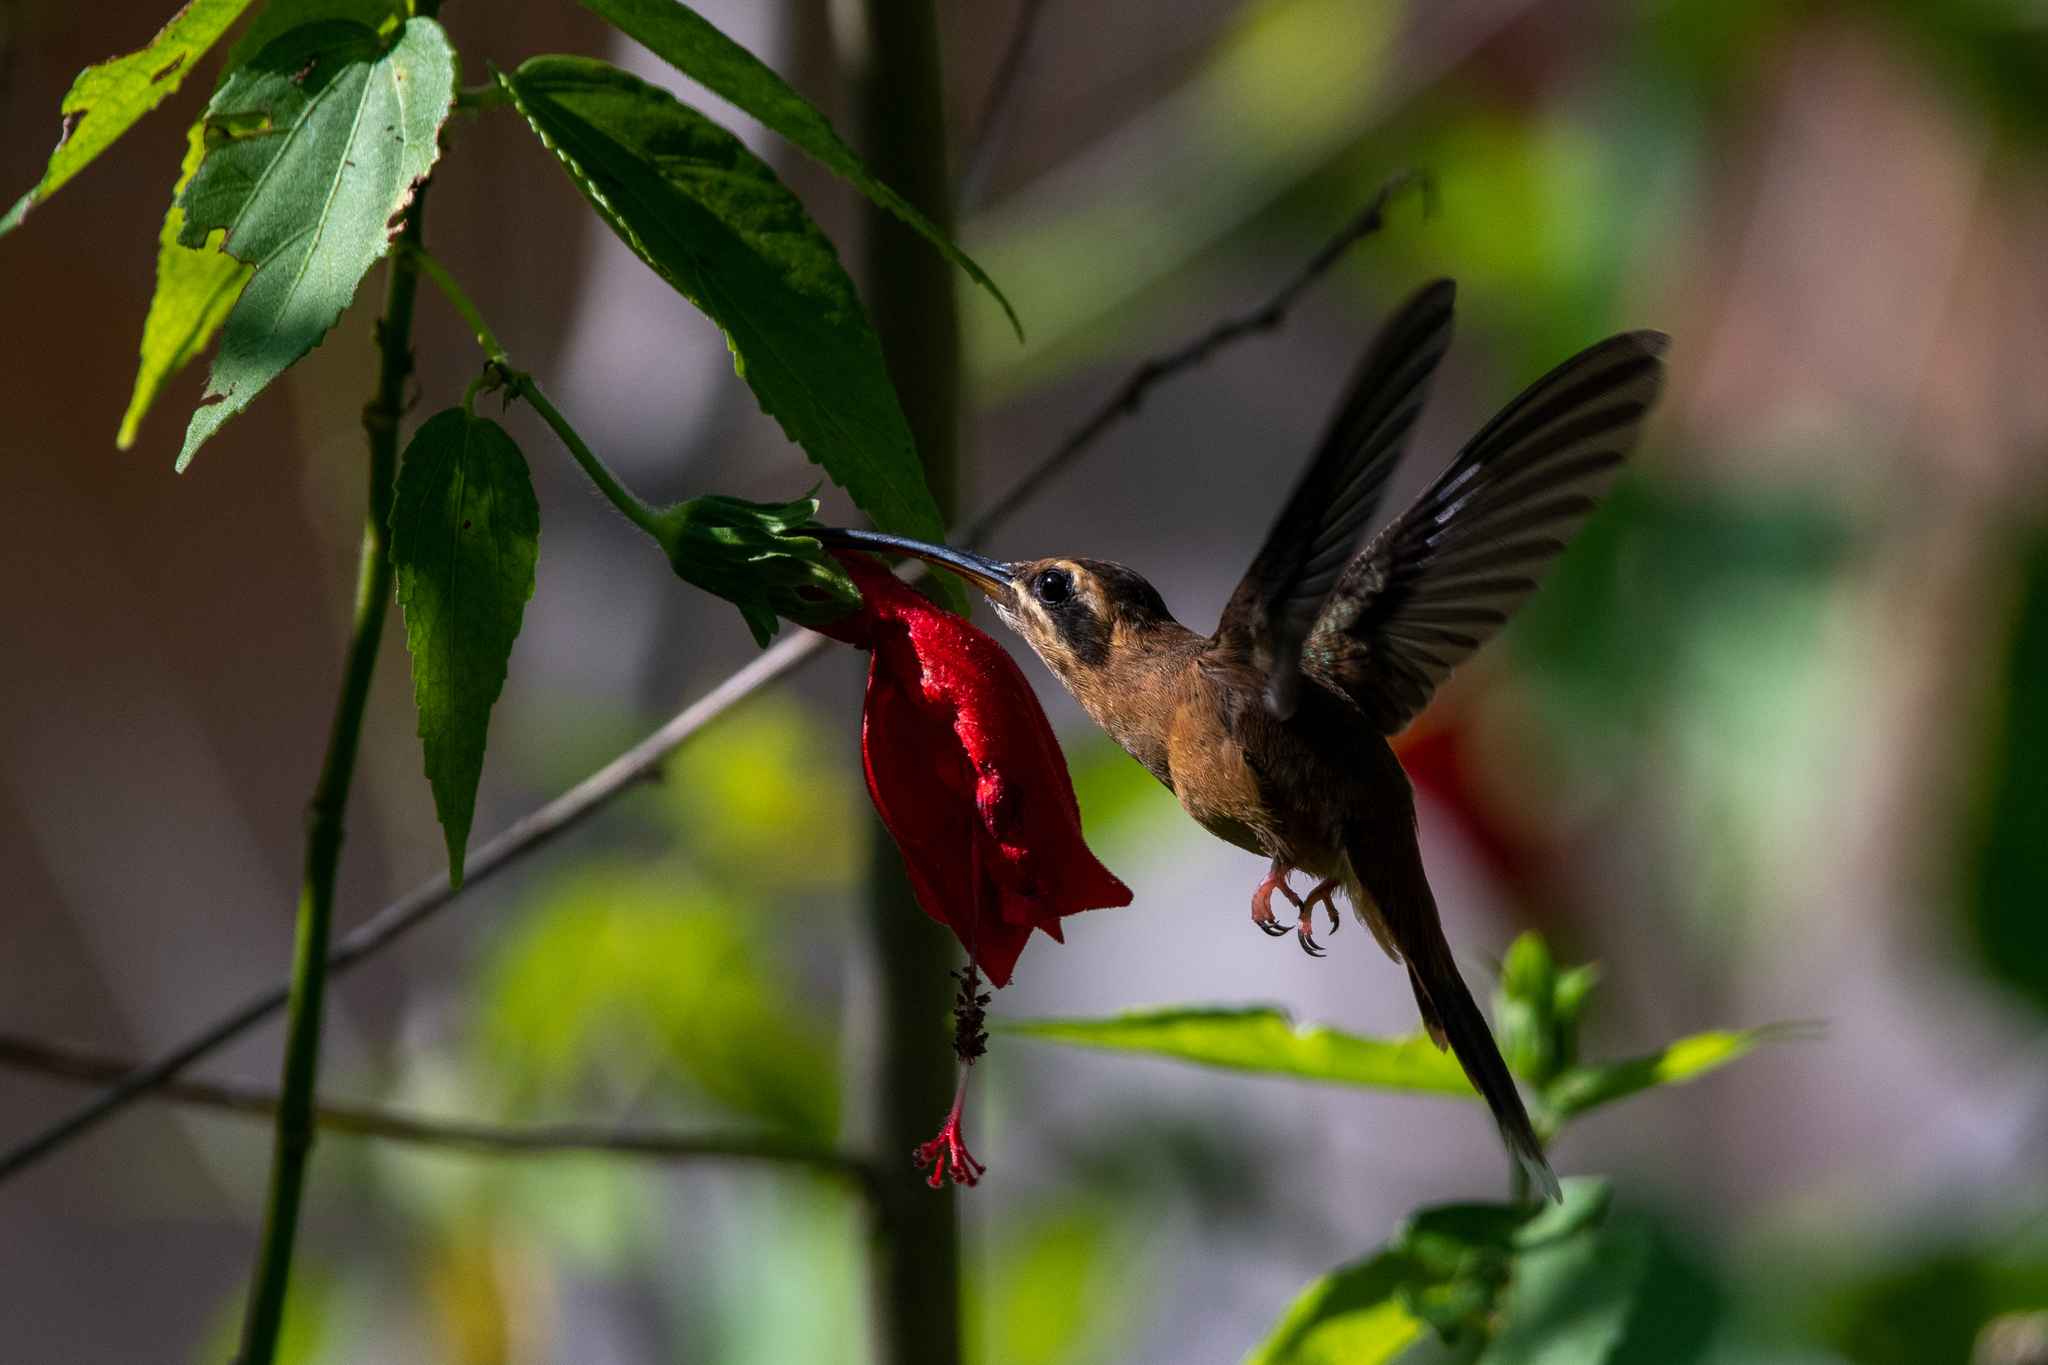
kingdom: Animalia
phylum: Chordata
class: Aves
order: Apodiformes
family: Trochilidae
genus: Phaethornis
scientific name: Phaethornis striigularis
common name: Stripe-throated hermit
